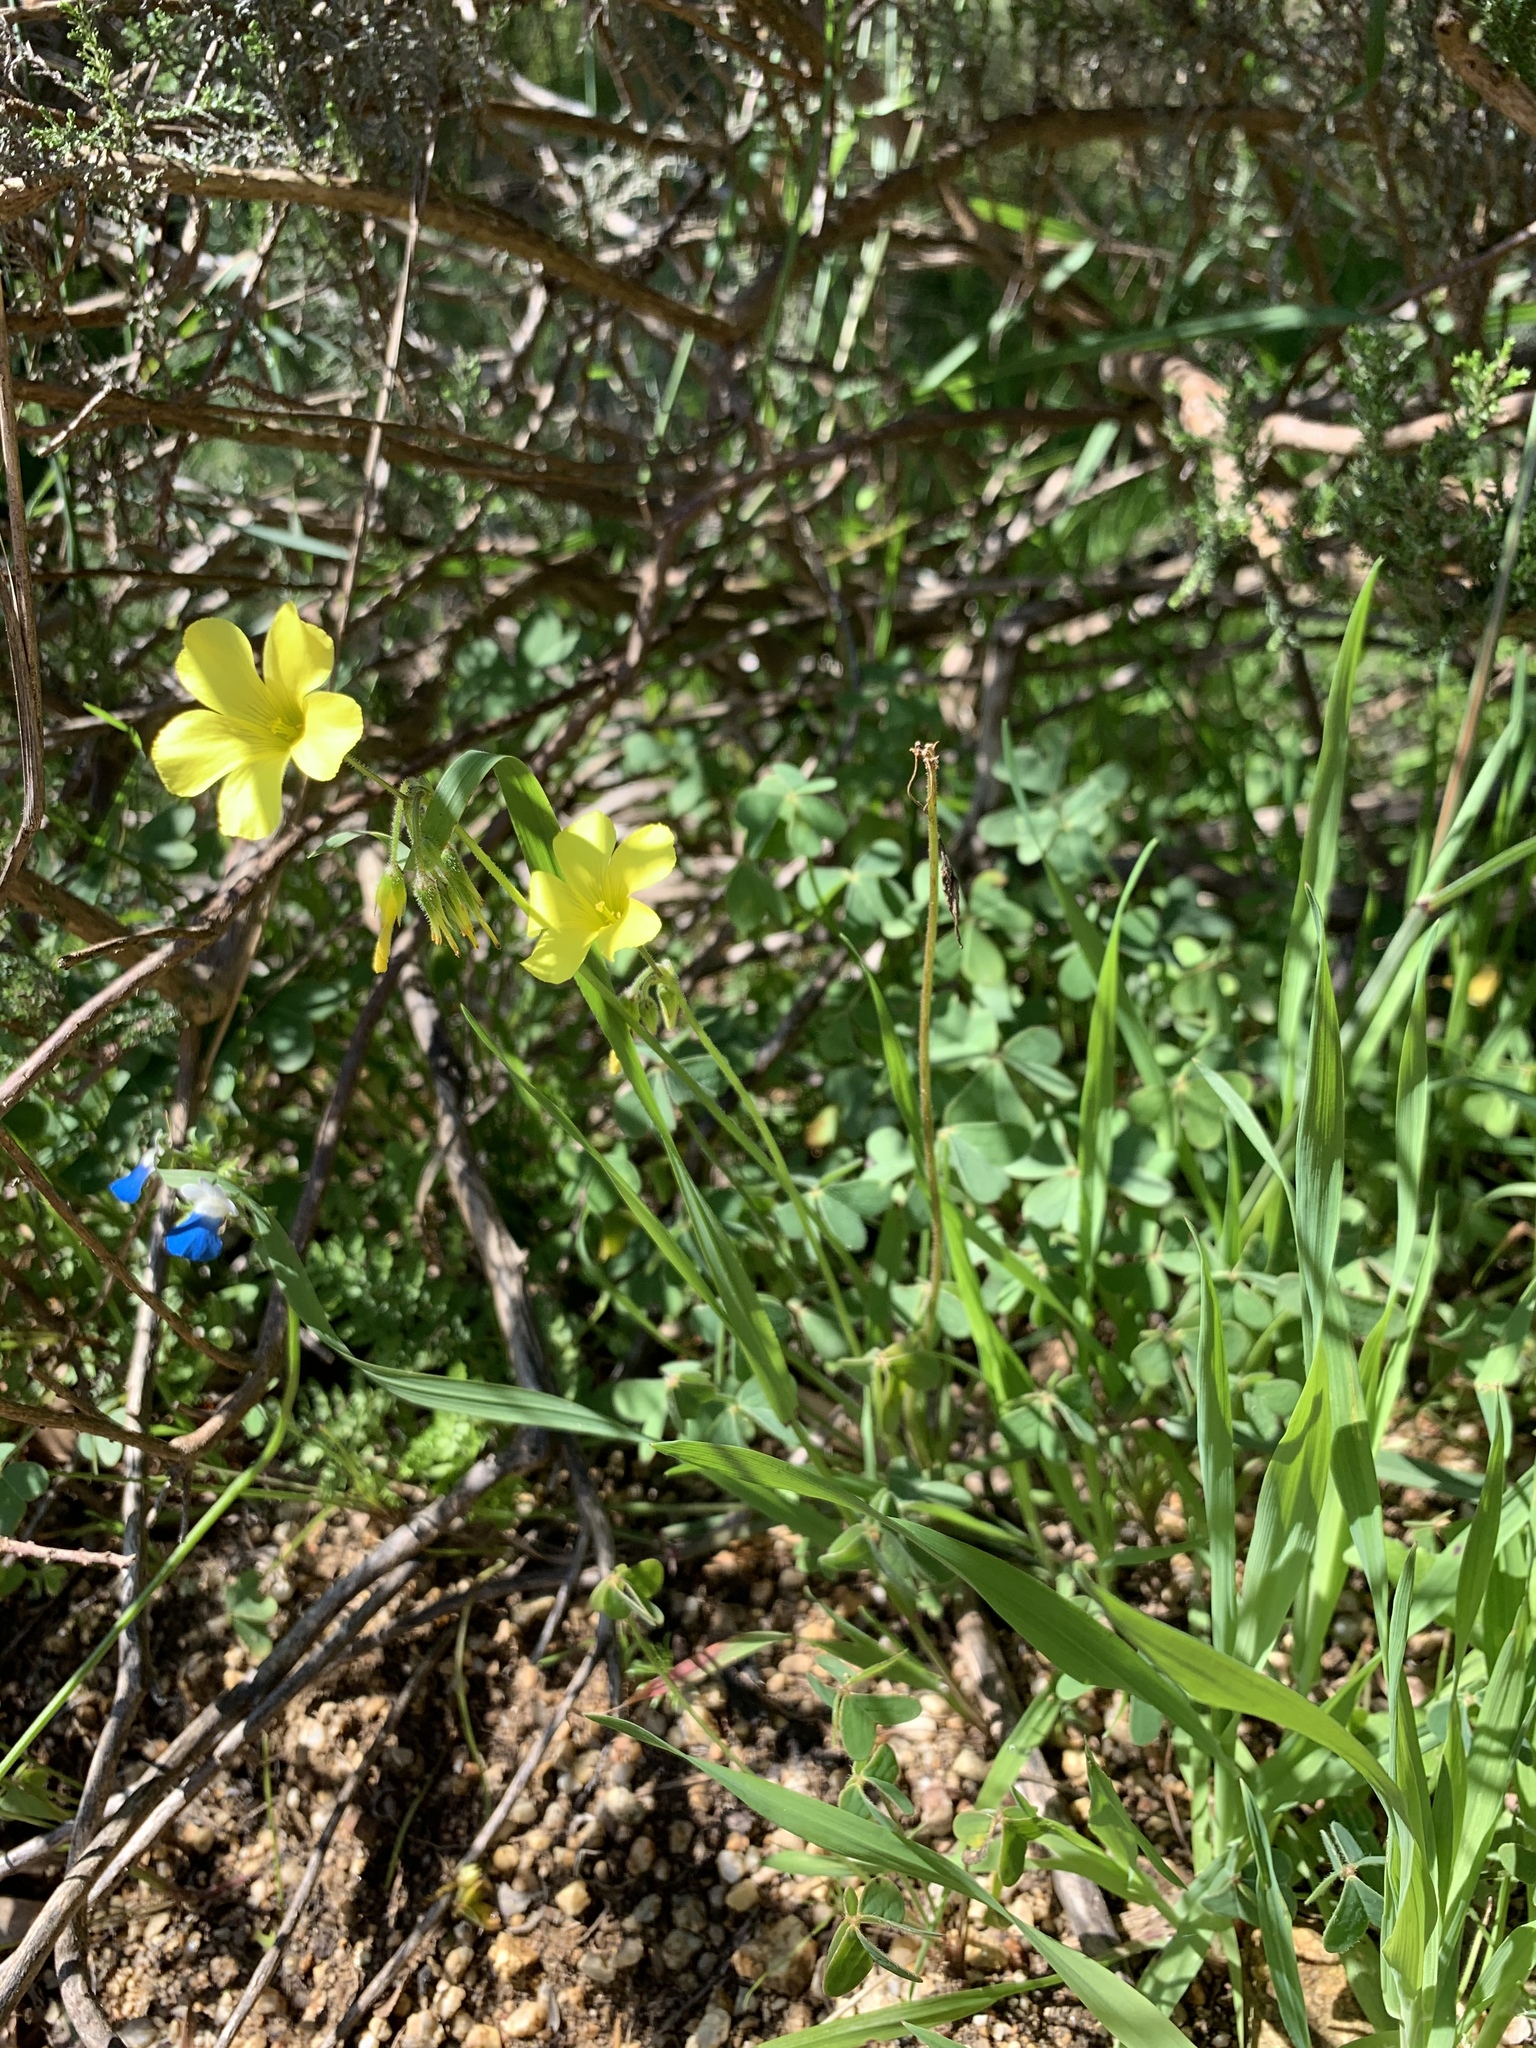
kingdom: Plantae
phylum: Tracheophyta
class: Magnoliopsida
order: Oxalidales
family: Oxalidaceae
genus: Oxalis
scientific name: Oxalis pes-caprae
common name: Bermuda-buttercup
